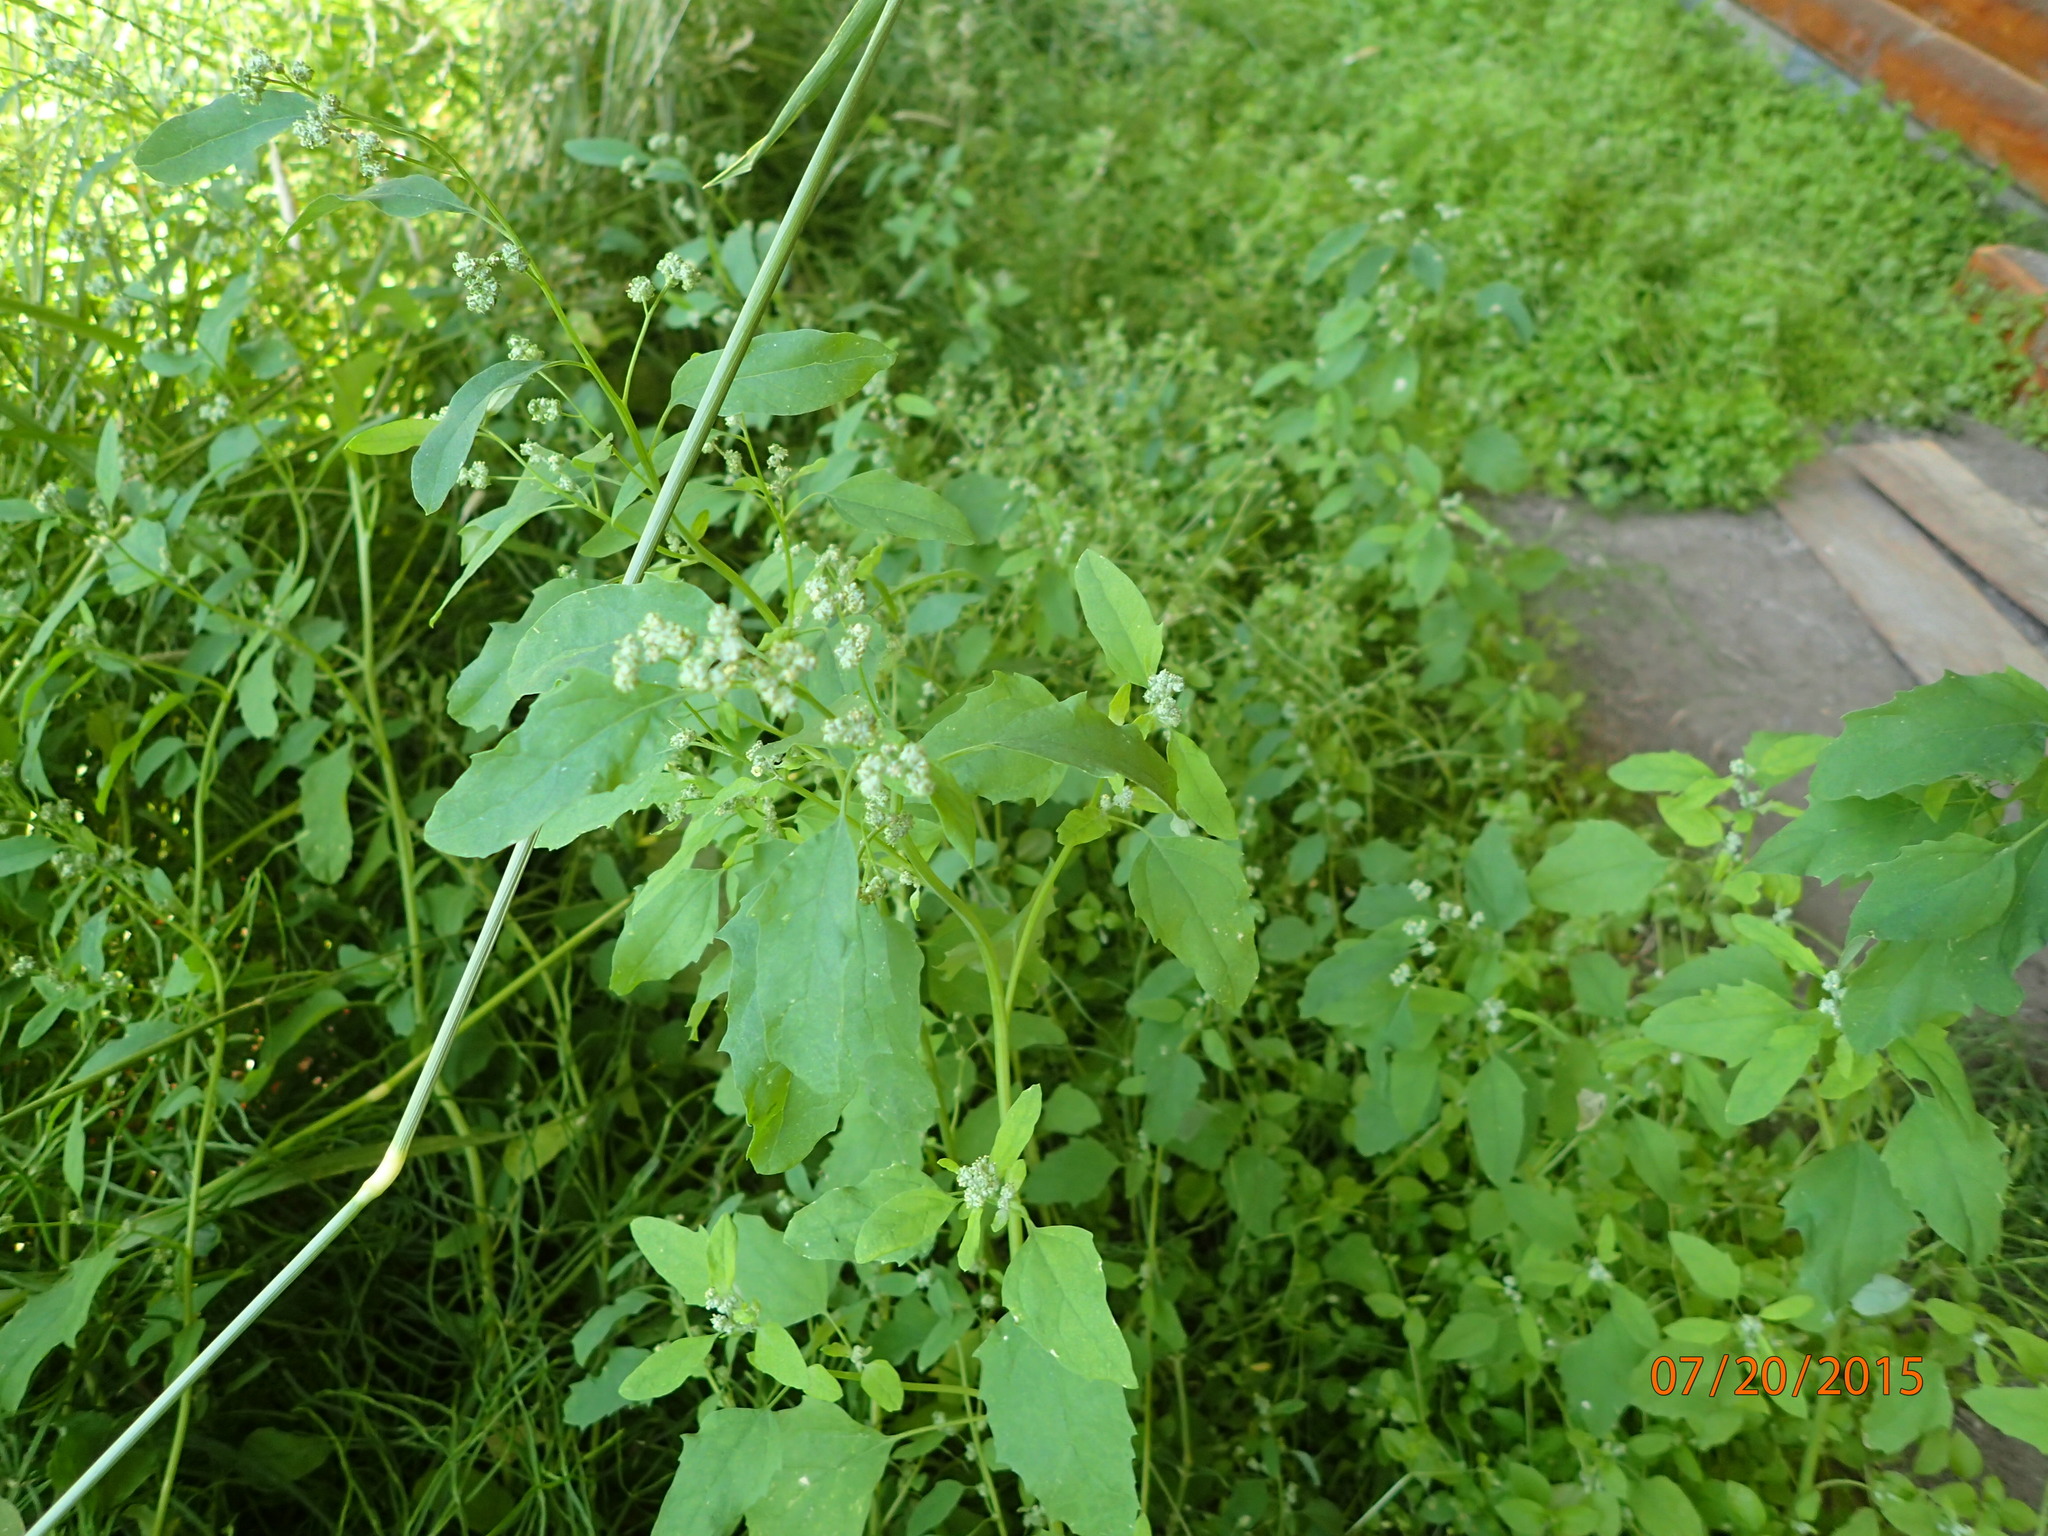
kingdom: Plantae
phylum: Tracheophyta
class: Magnoliopsida
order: Caryophyllales
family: Amaranthaceae
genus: Chenopodium
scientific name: Chenopodium album
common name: Fat-hen
